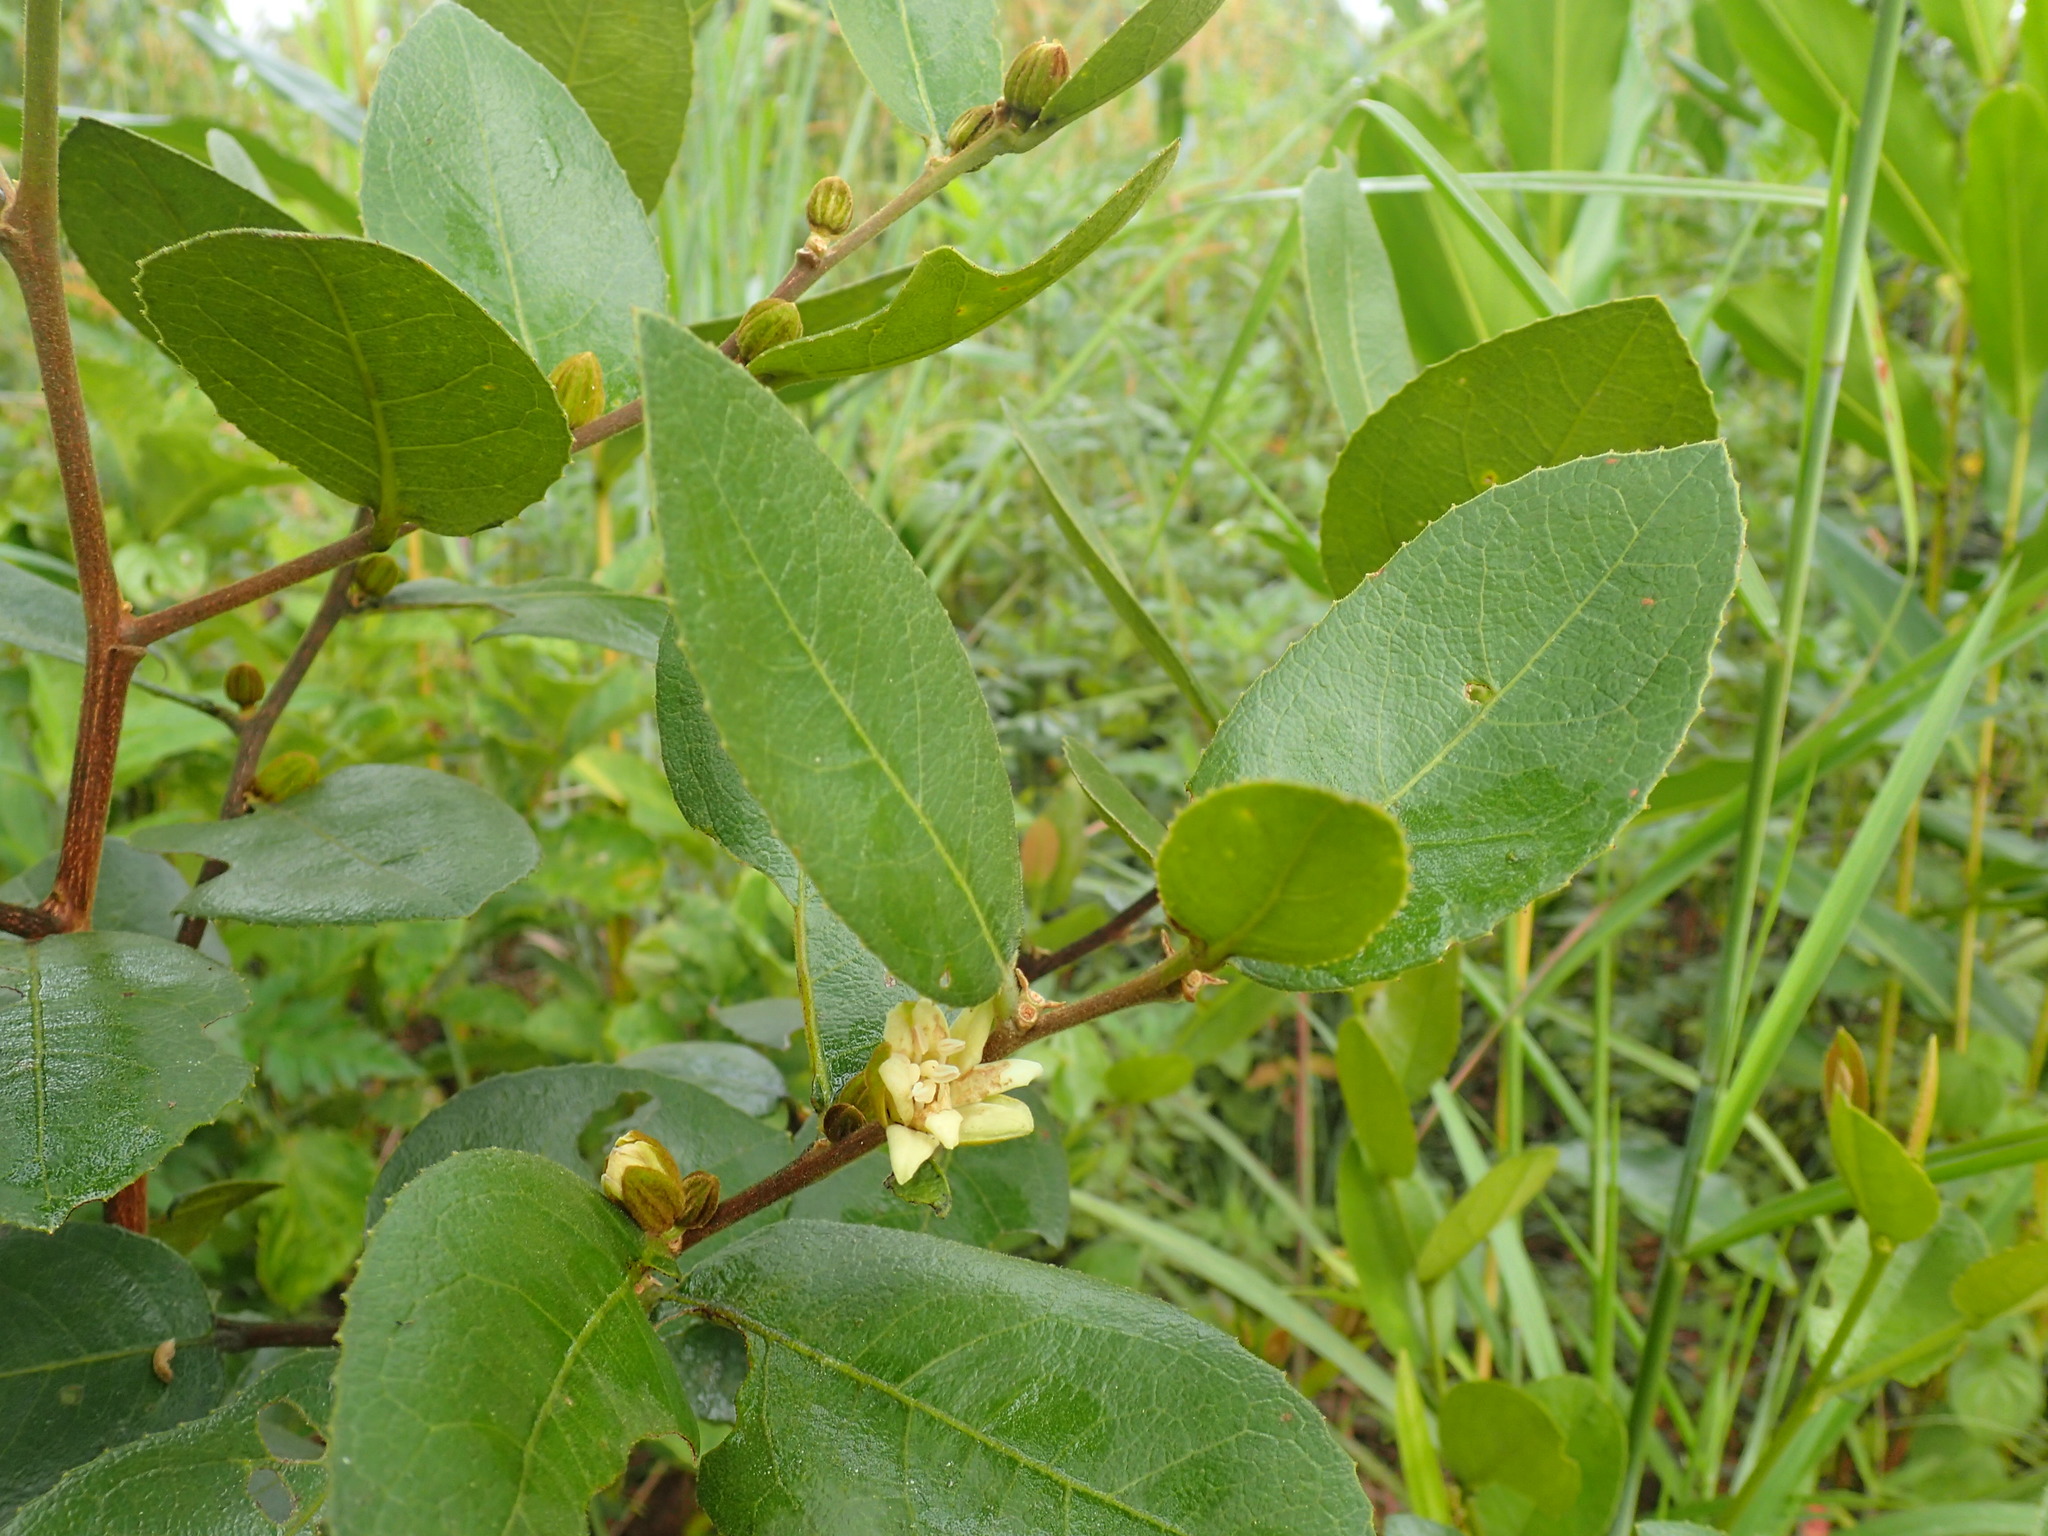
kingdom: Plantae
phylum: Tracheophyta
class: Magnoliopsida
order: Malpighiales
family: Passifloraceae
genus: Paropsia
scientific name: Paropsia brazzaeana
